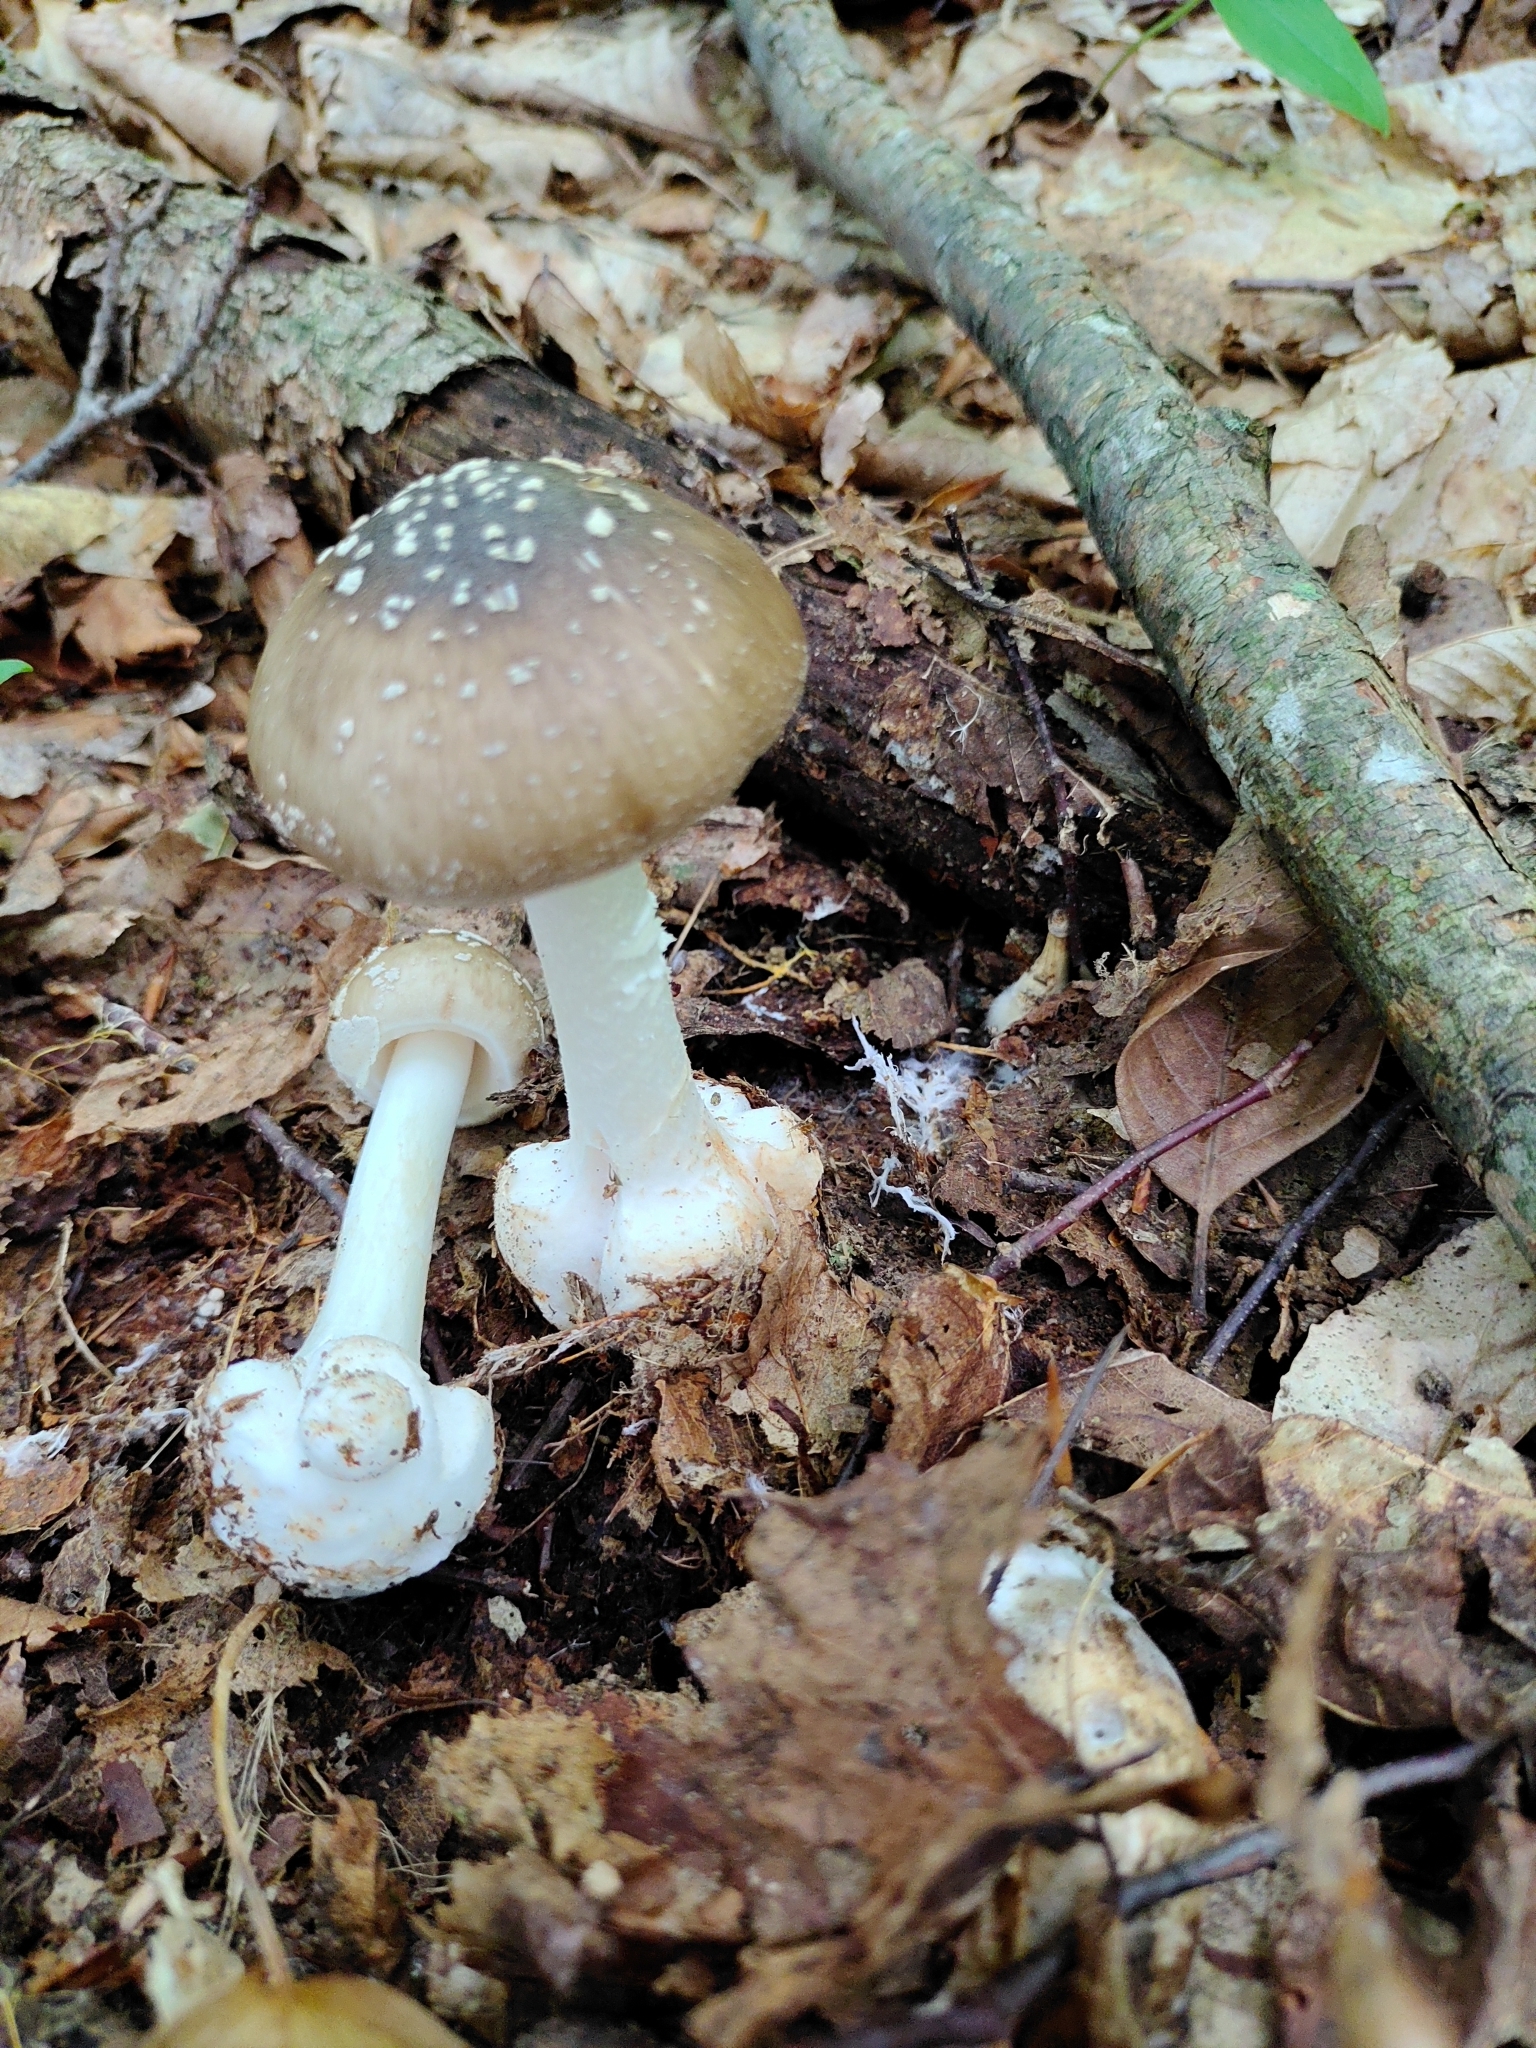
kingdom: Fungi
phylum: Basidiomycota
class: Agaricomycetes
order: Agaricales
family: Amanitaceae
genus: Amanita
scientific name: Amanita brunnescens
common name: Brown american star-footed amanita
